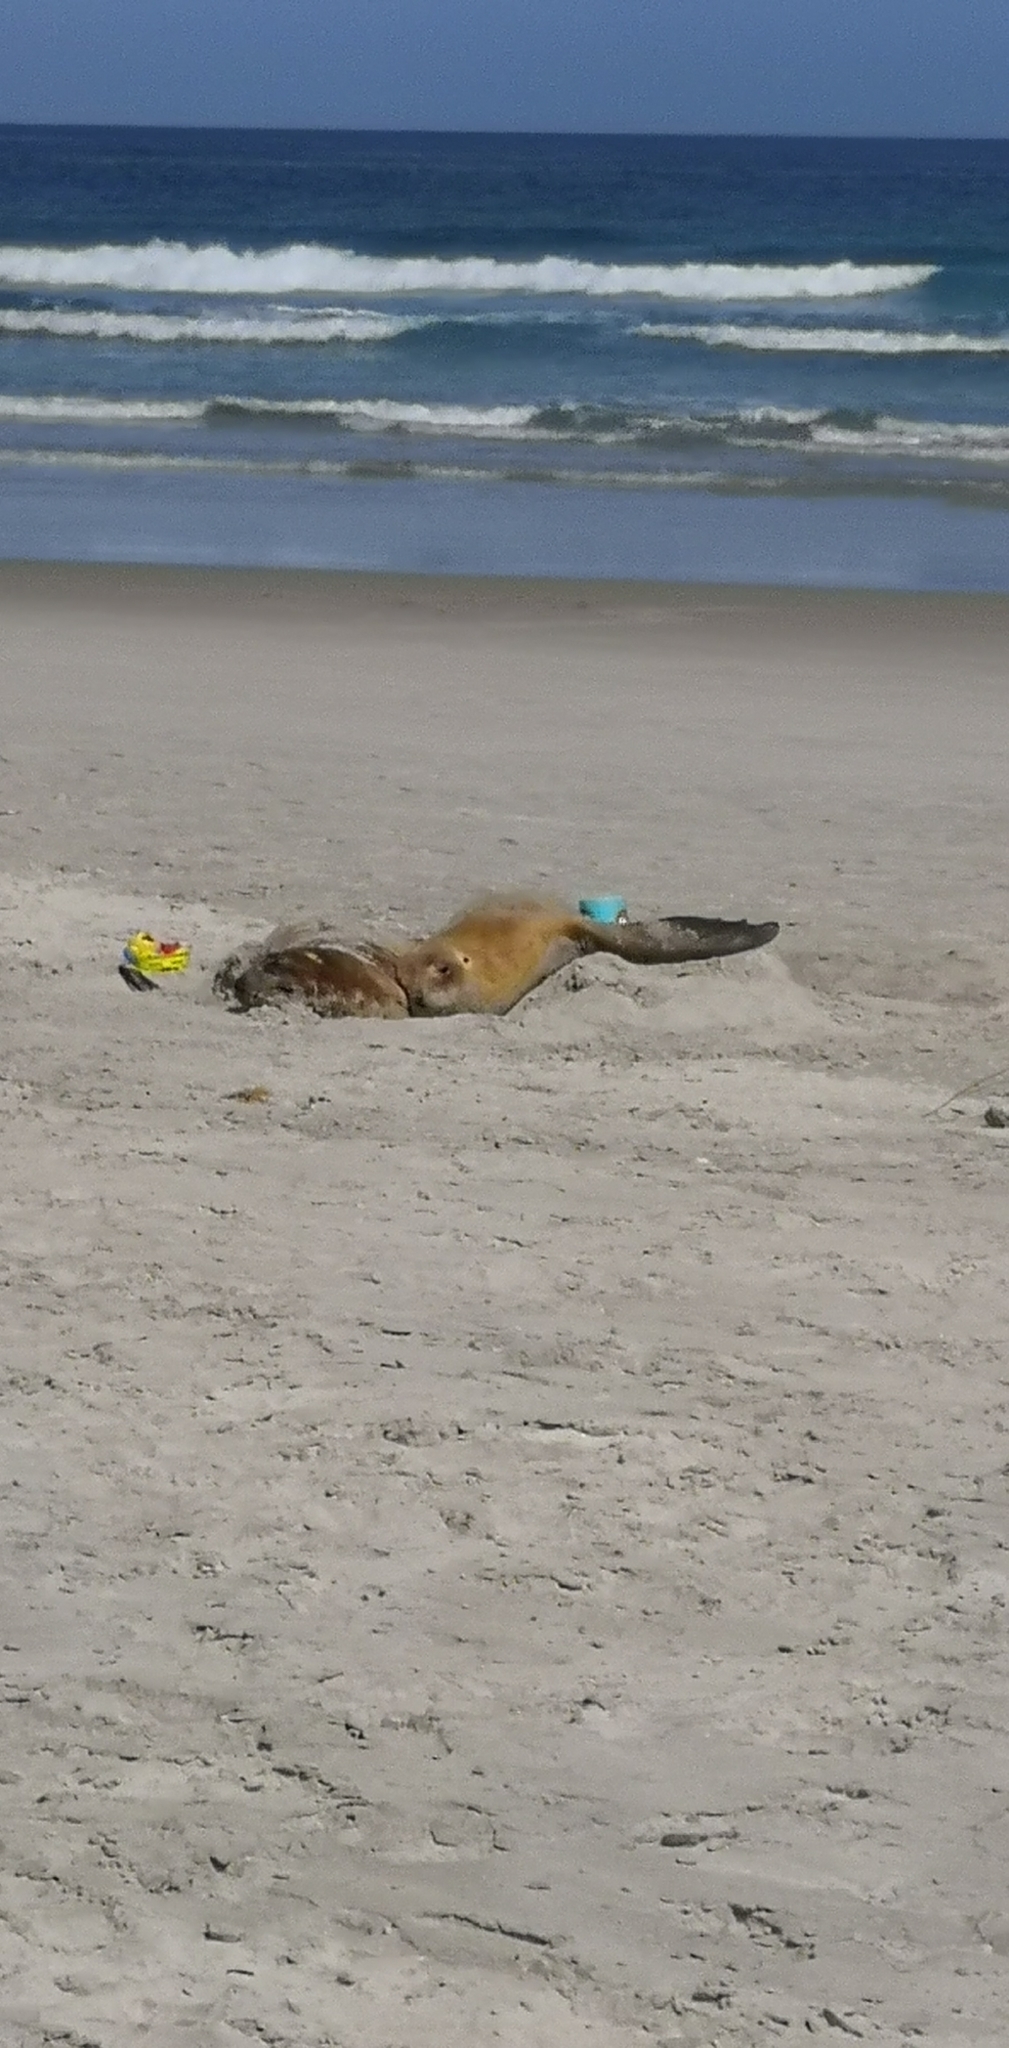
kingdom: Animalia
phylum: Chordata
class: Mammalia
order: Carnivora
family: Otariidae
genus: Phocarctos
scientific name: Phocarctos hookeri
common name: New zealand sea lion
